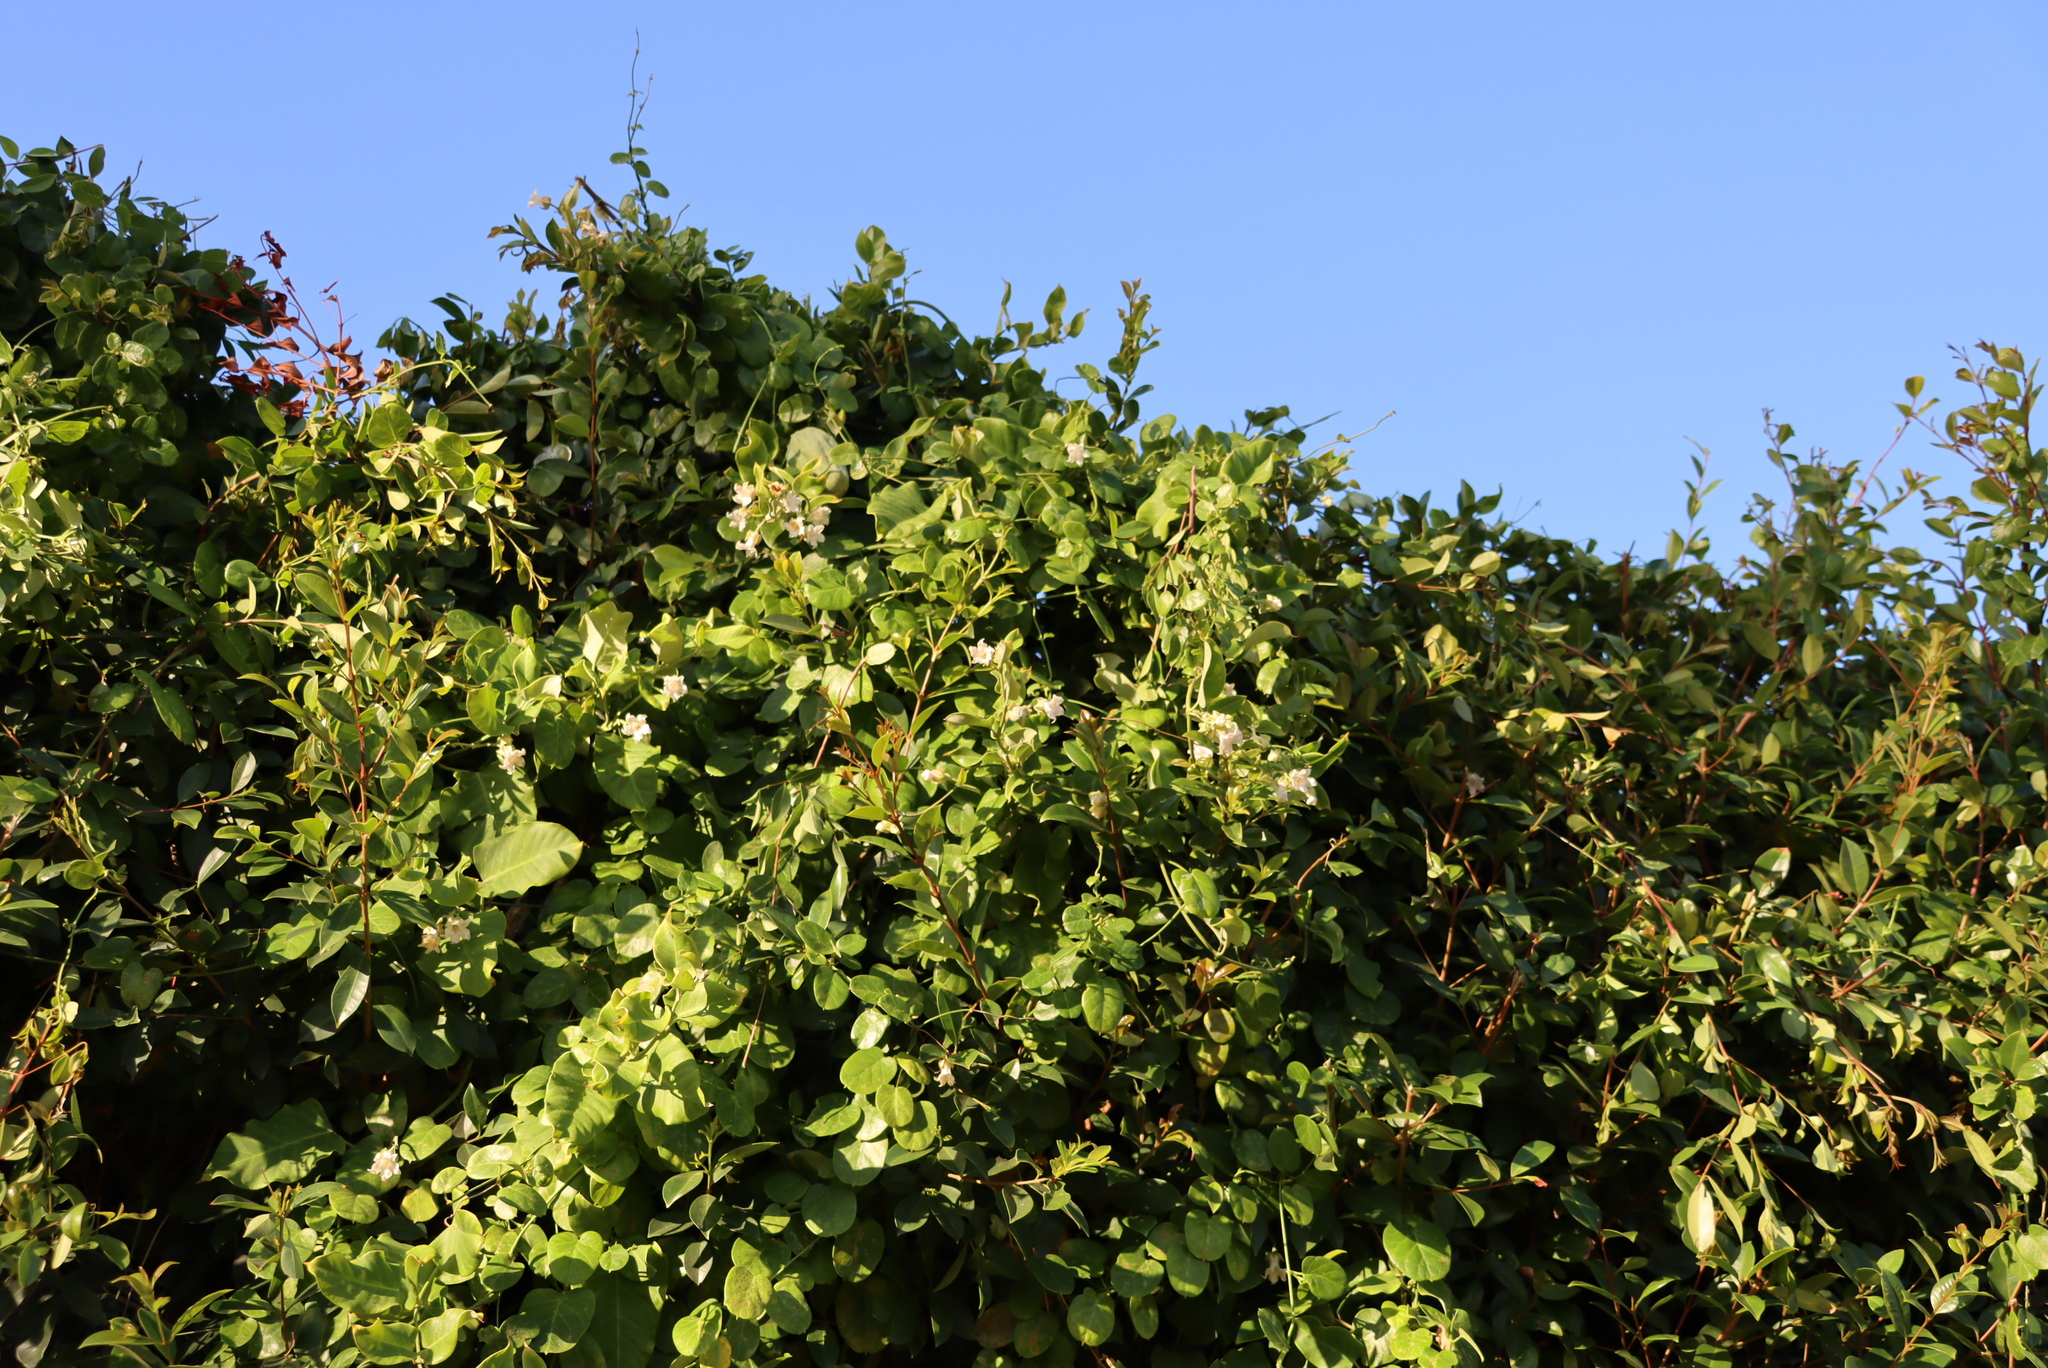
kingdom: Plantae
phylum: Tracheophyta
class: Magnoliopsida
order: Gentianales
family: Apocynaceae
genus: Araujia
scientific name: Araujia sericifera
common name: White bladderflower
